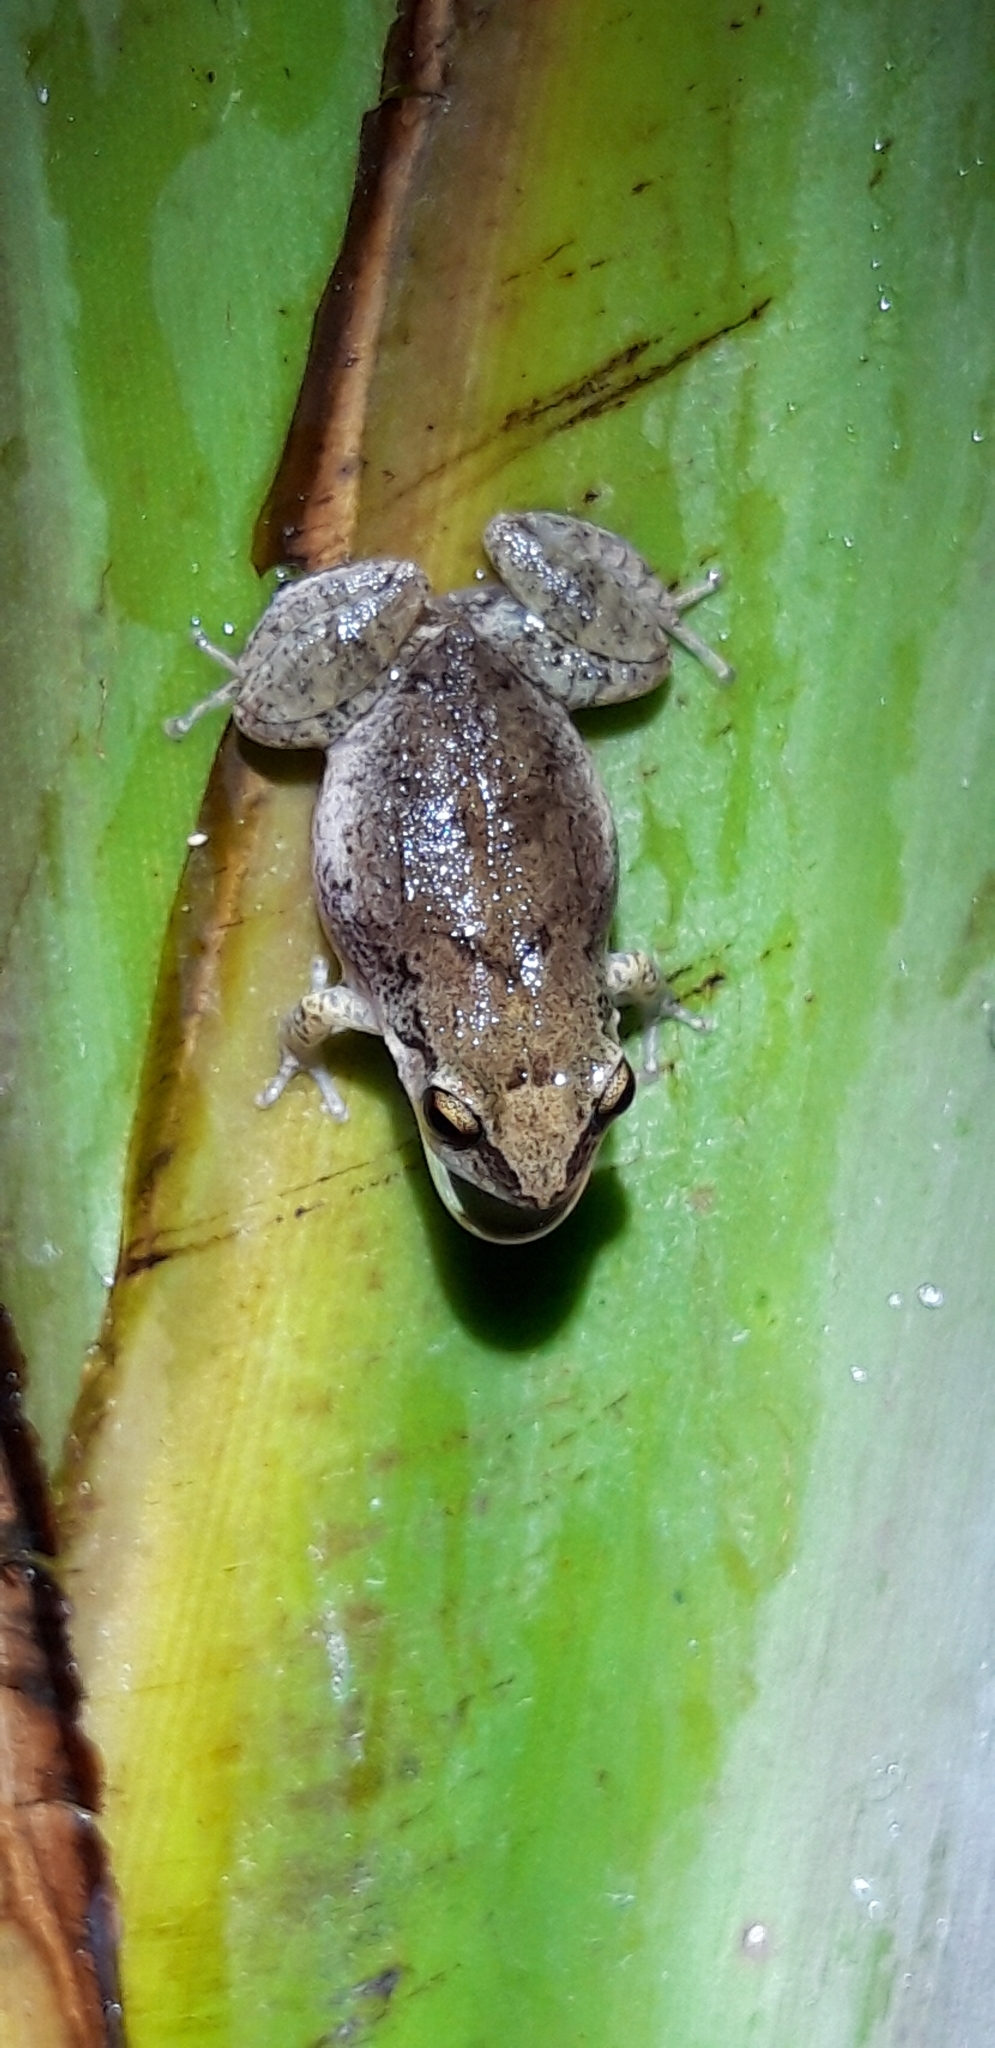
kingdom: Animalia
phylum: Chordata
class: Amphibia
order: Anura
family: Eleutherodactylidae
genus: Eleutherodactylus
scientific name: Eleutherodactylus montserratae
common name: Montserrat whistling frog
